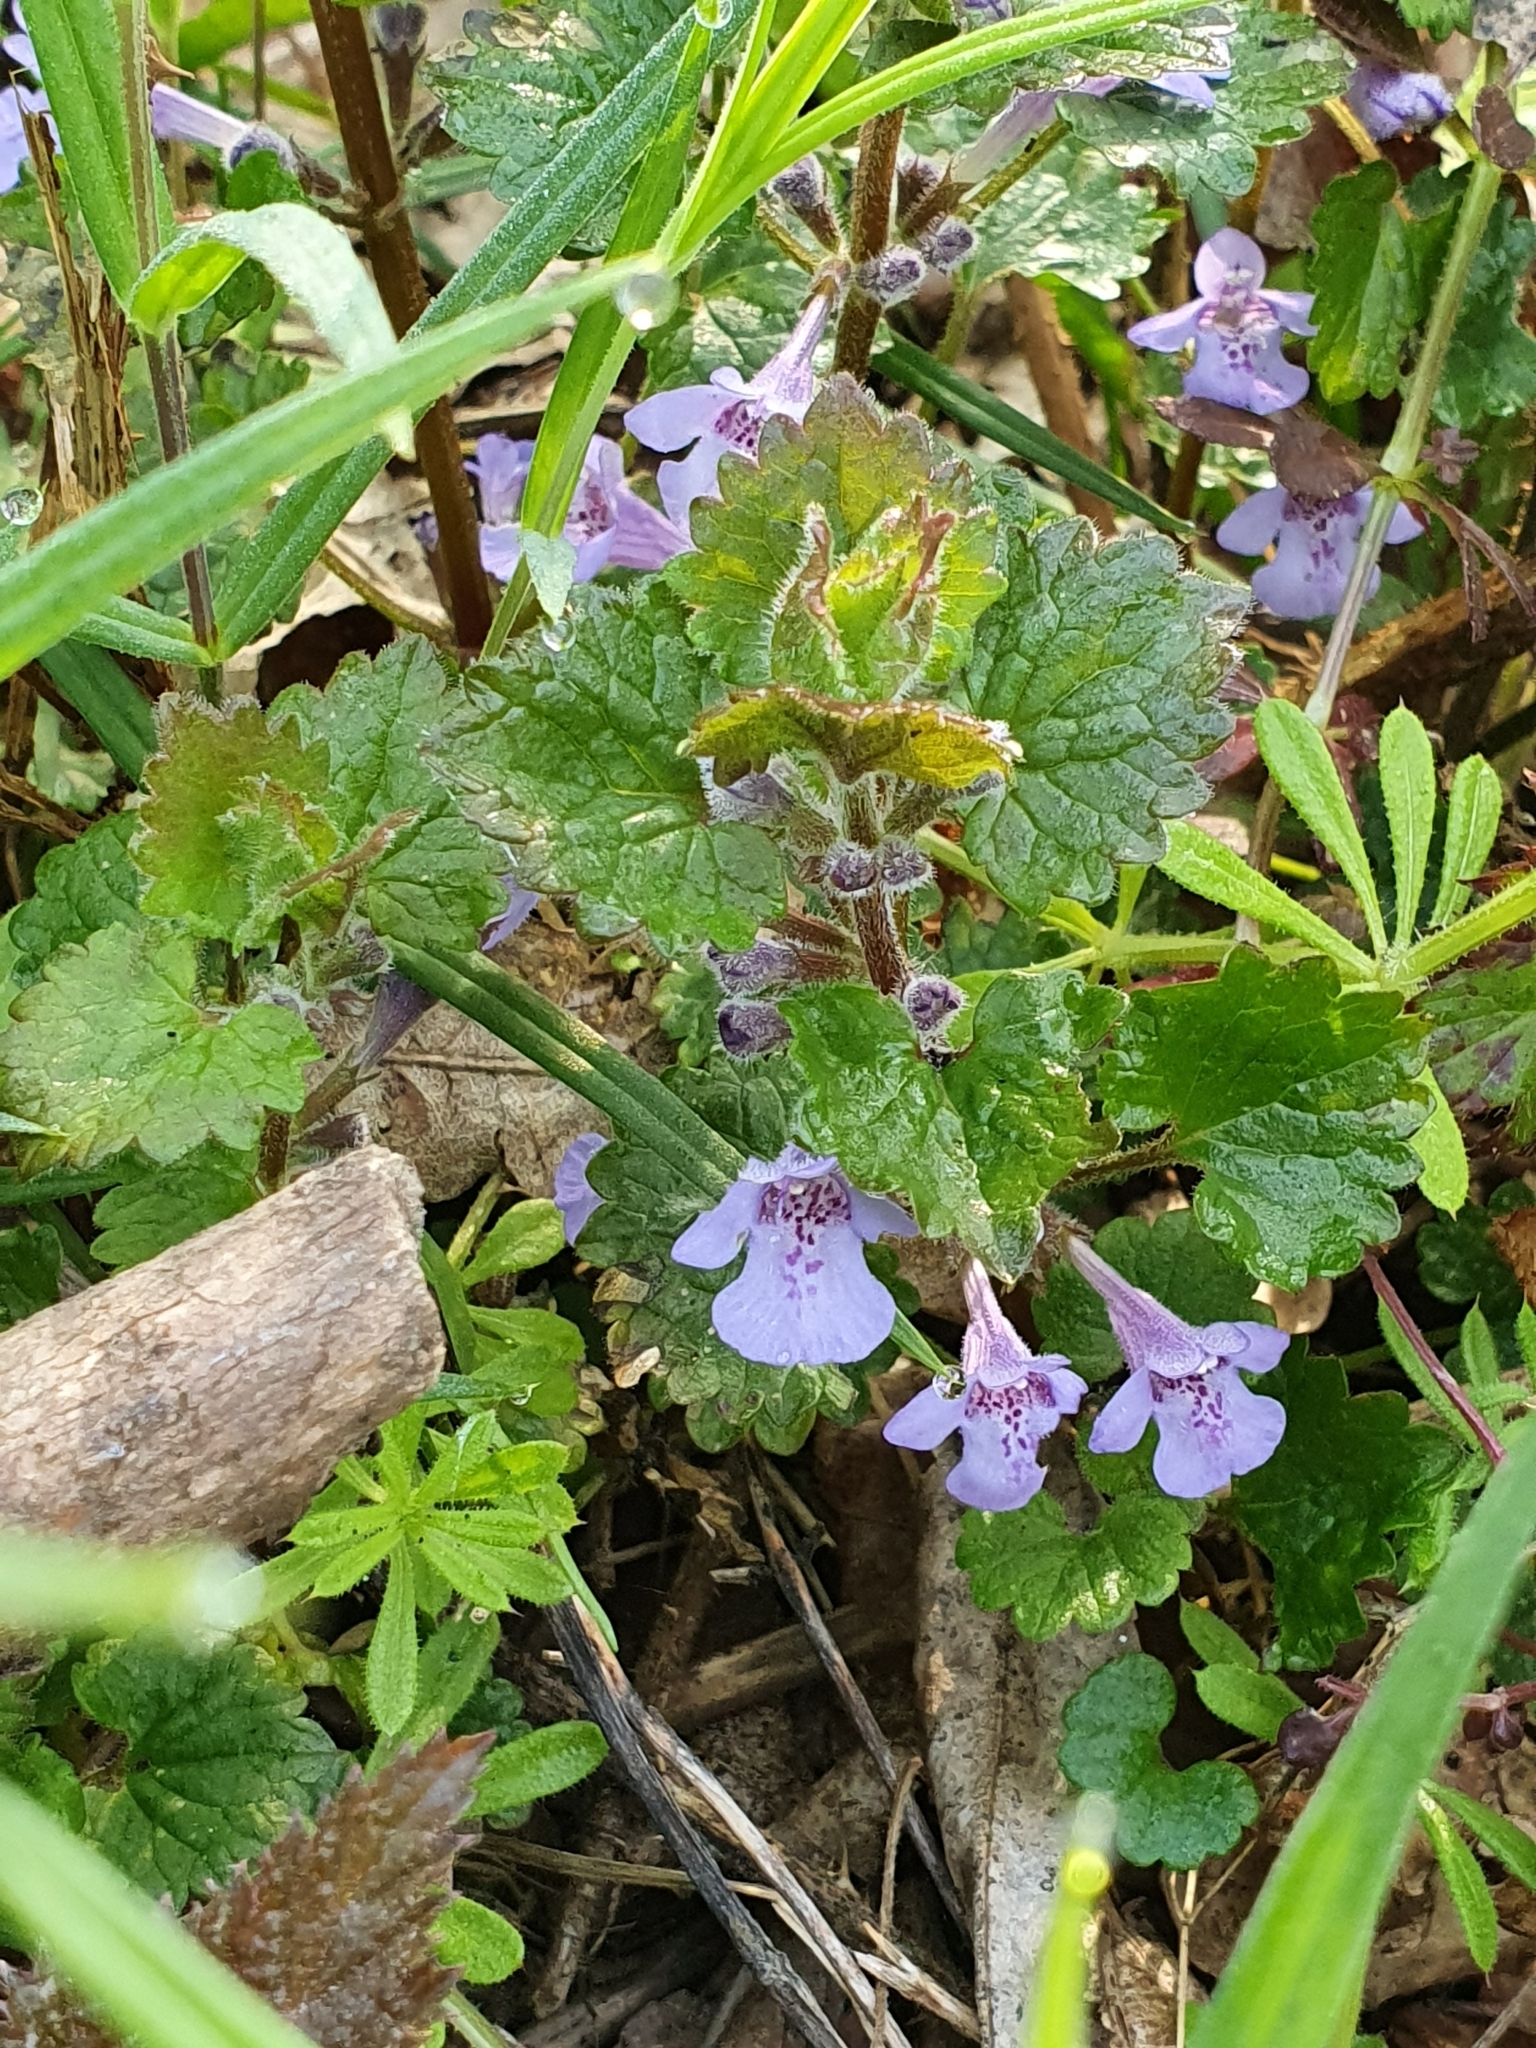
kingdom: Plantae
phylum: Tracheophyta
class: Magnoliopsida
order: Lamiales
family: Lamiaceae
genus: Glechoma
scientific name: Glechoma hederacea
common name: Ground ivy
